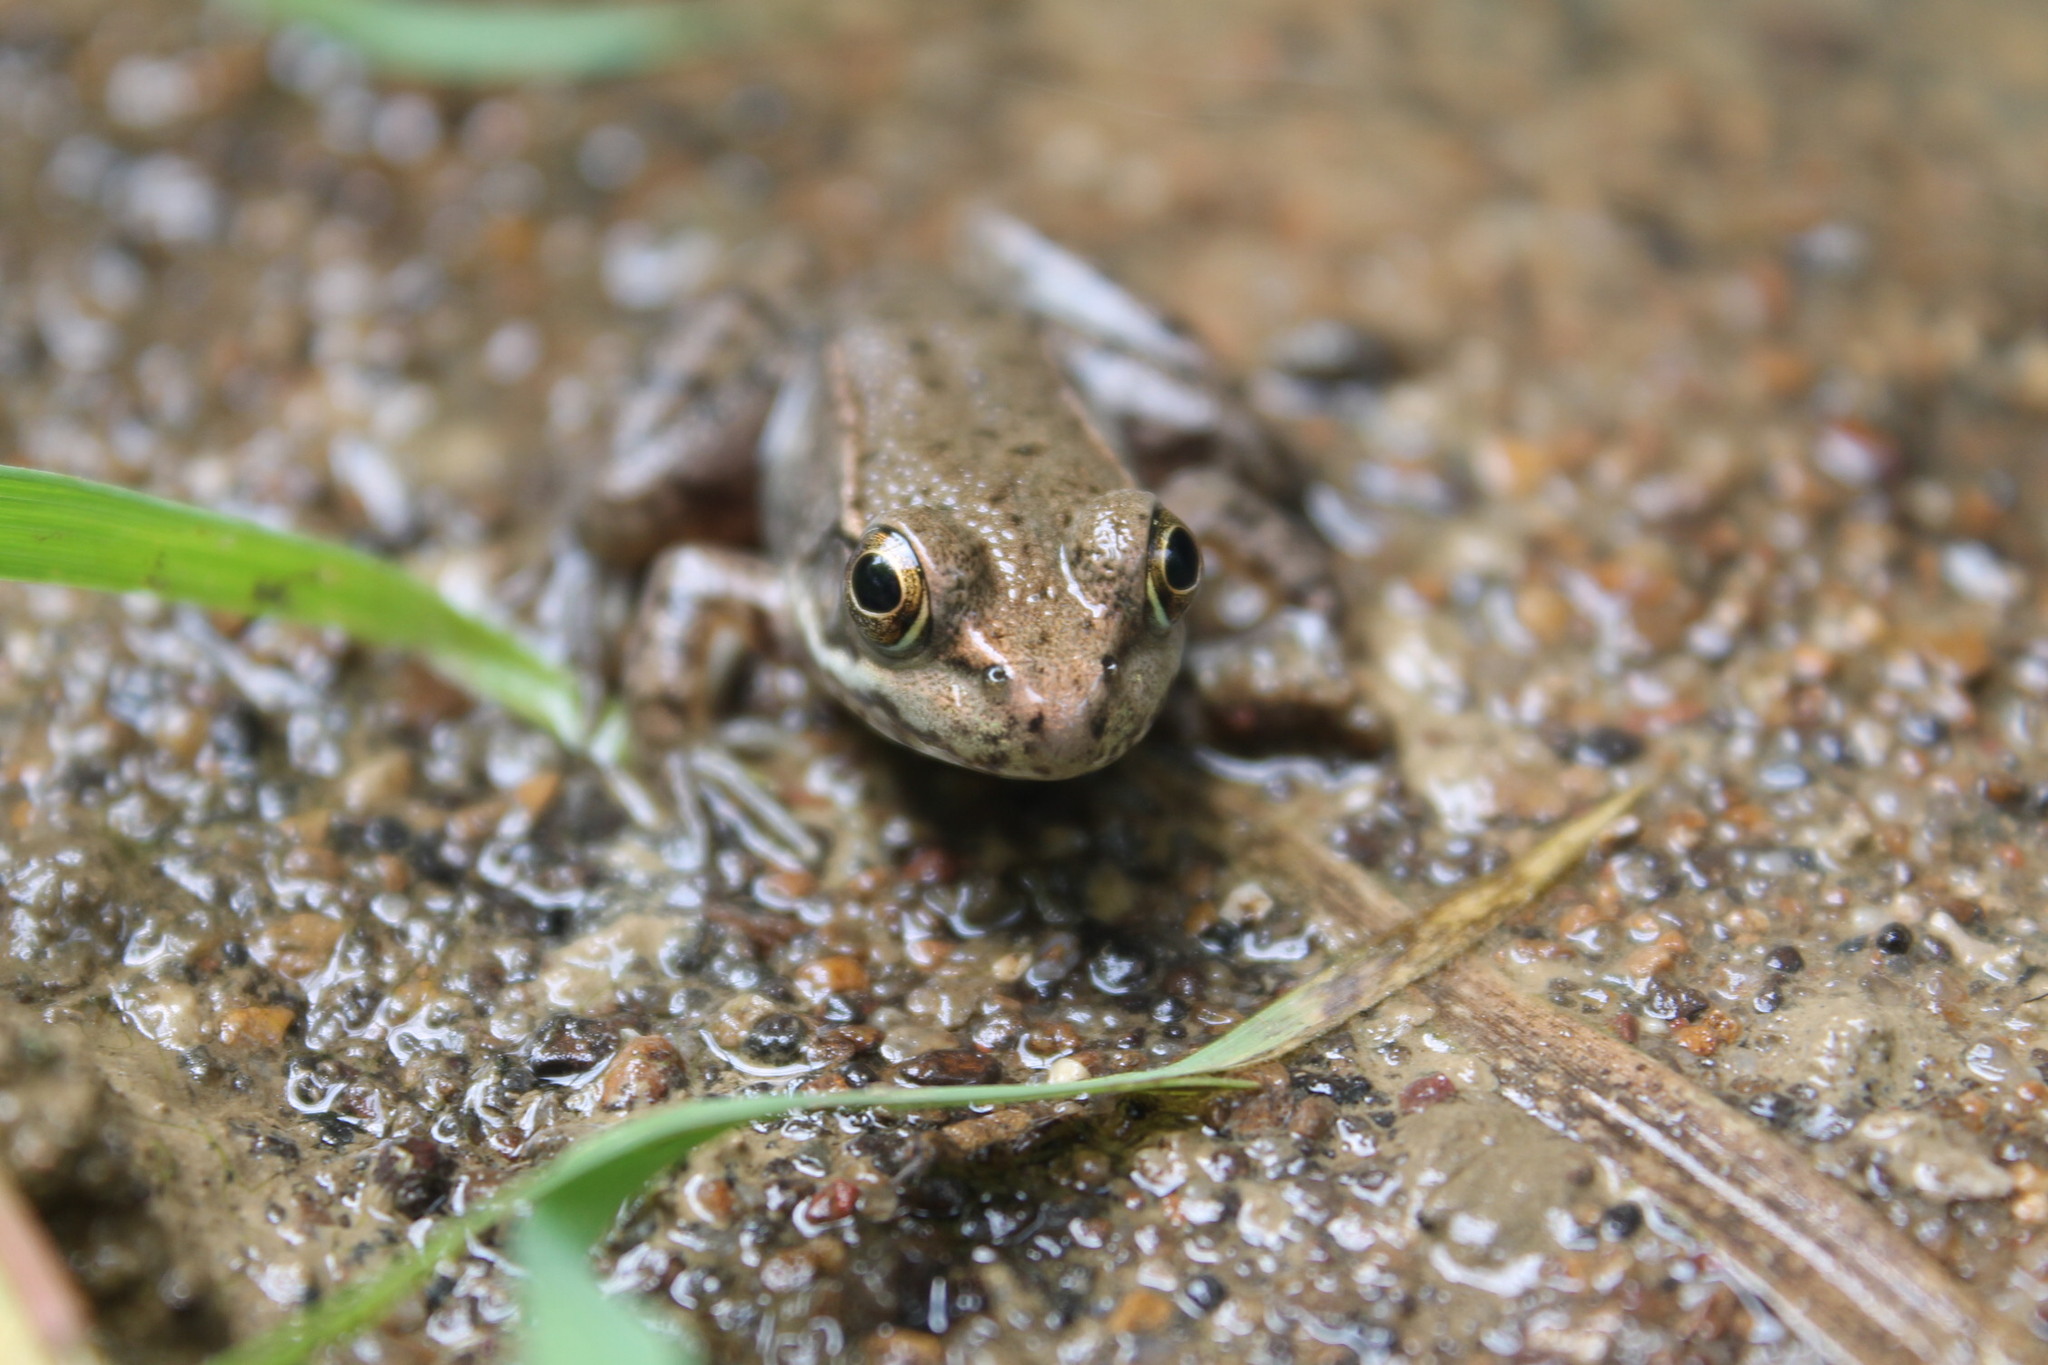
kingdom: Animalia
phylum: Chordata
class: Amphibia
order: Anura
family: Ranidae
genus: Lithobates
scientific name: Lithobates clamitans
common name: Green frog
